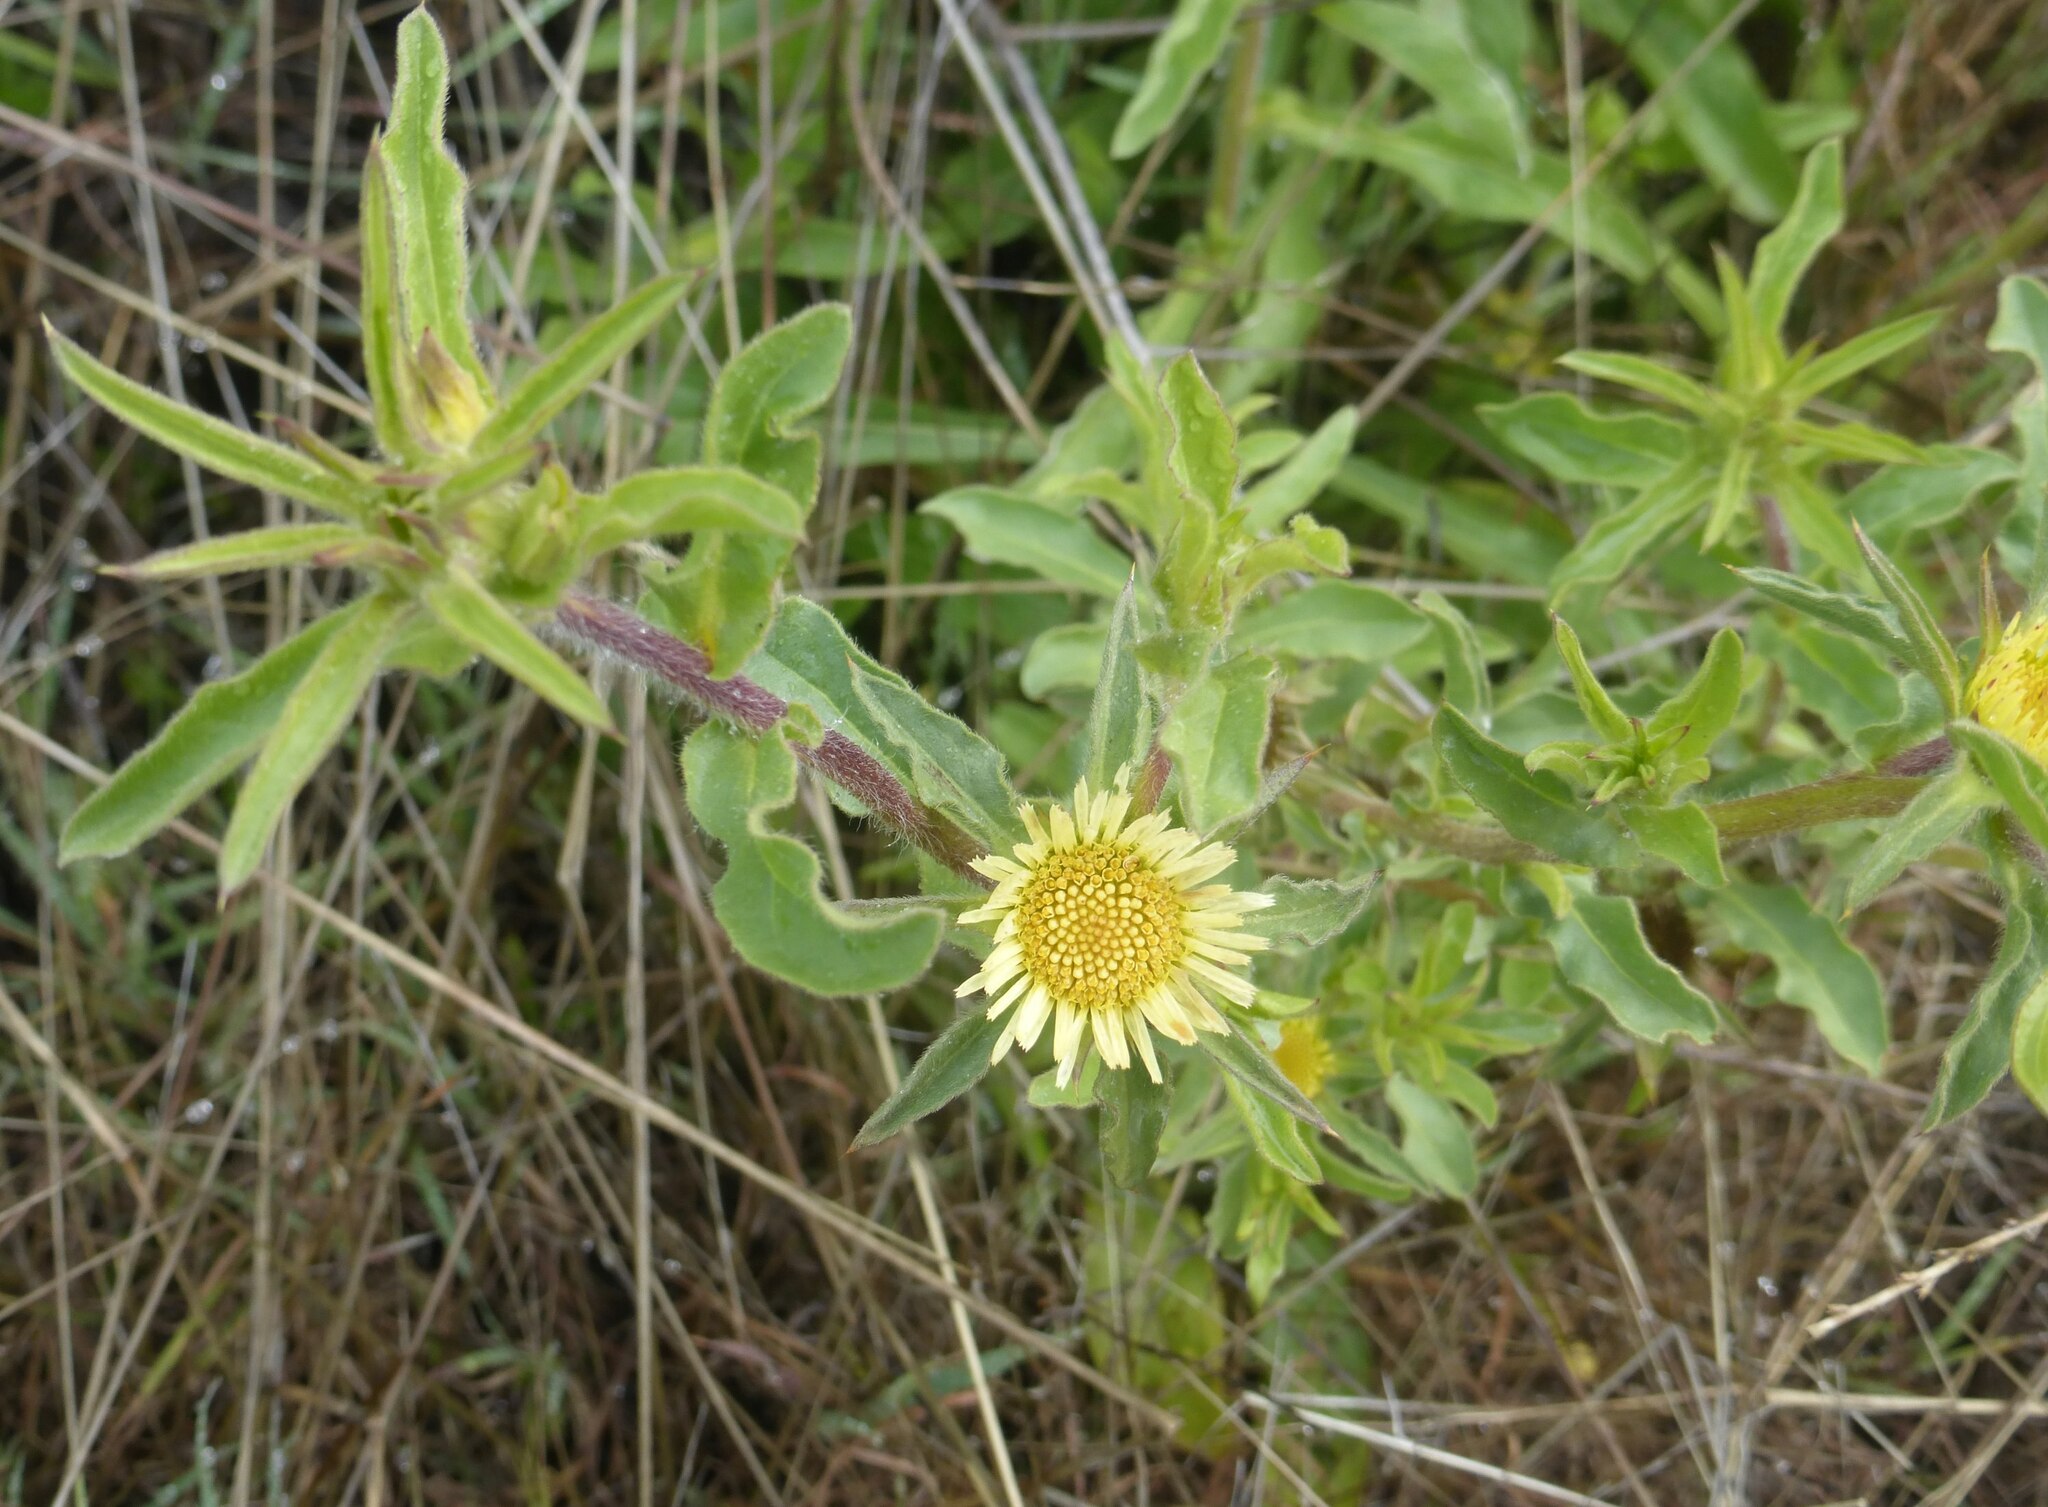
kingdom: Plantae
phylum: Tracheophyta
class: Magnoliopsida
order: Asterales
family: Asteraceae
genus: Pallenis
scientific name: Pallenis spinosa
